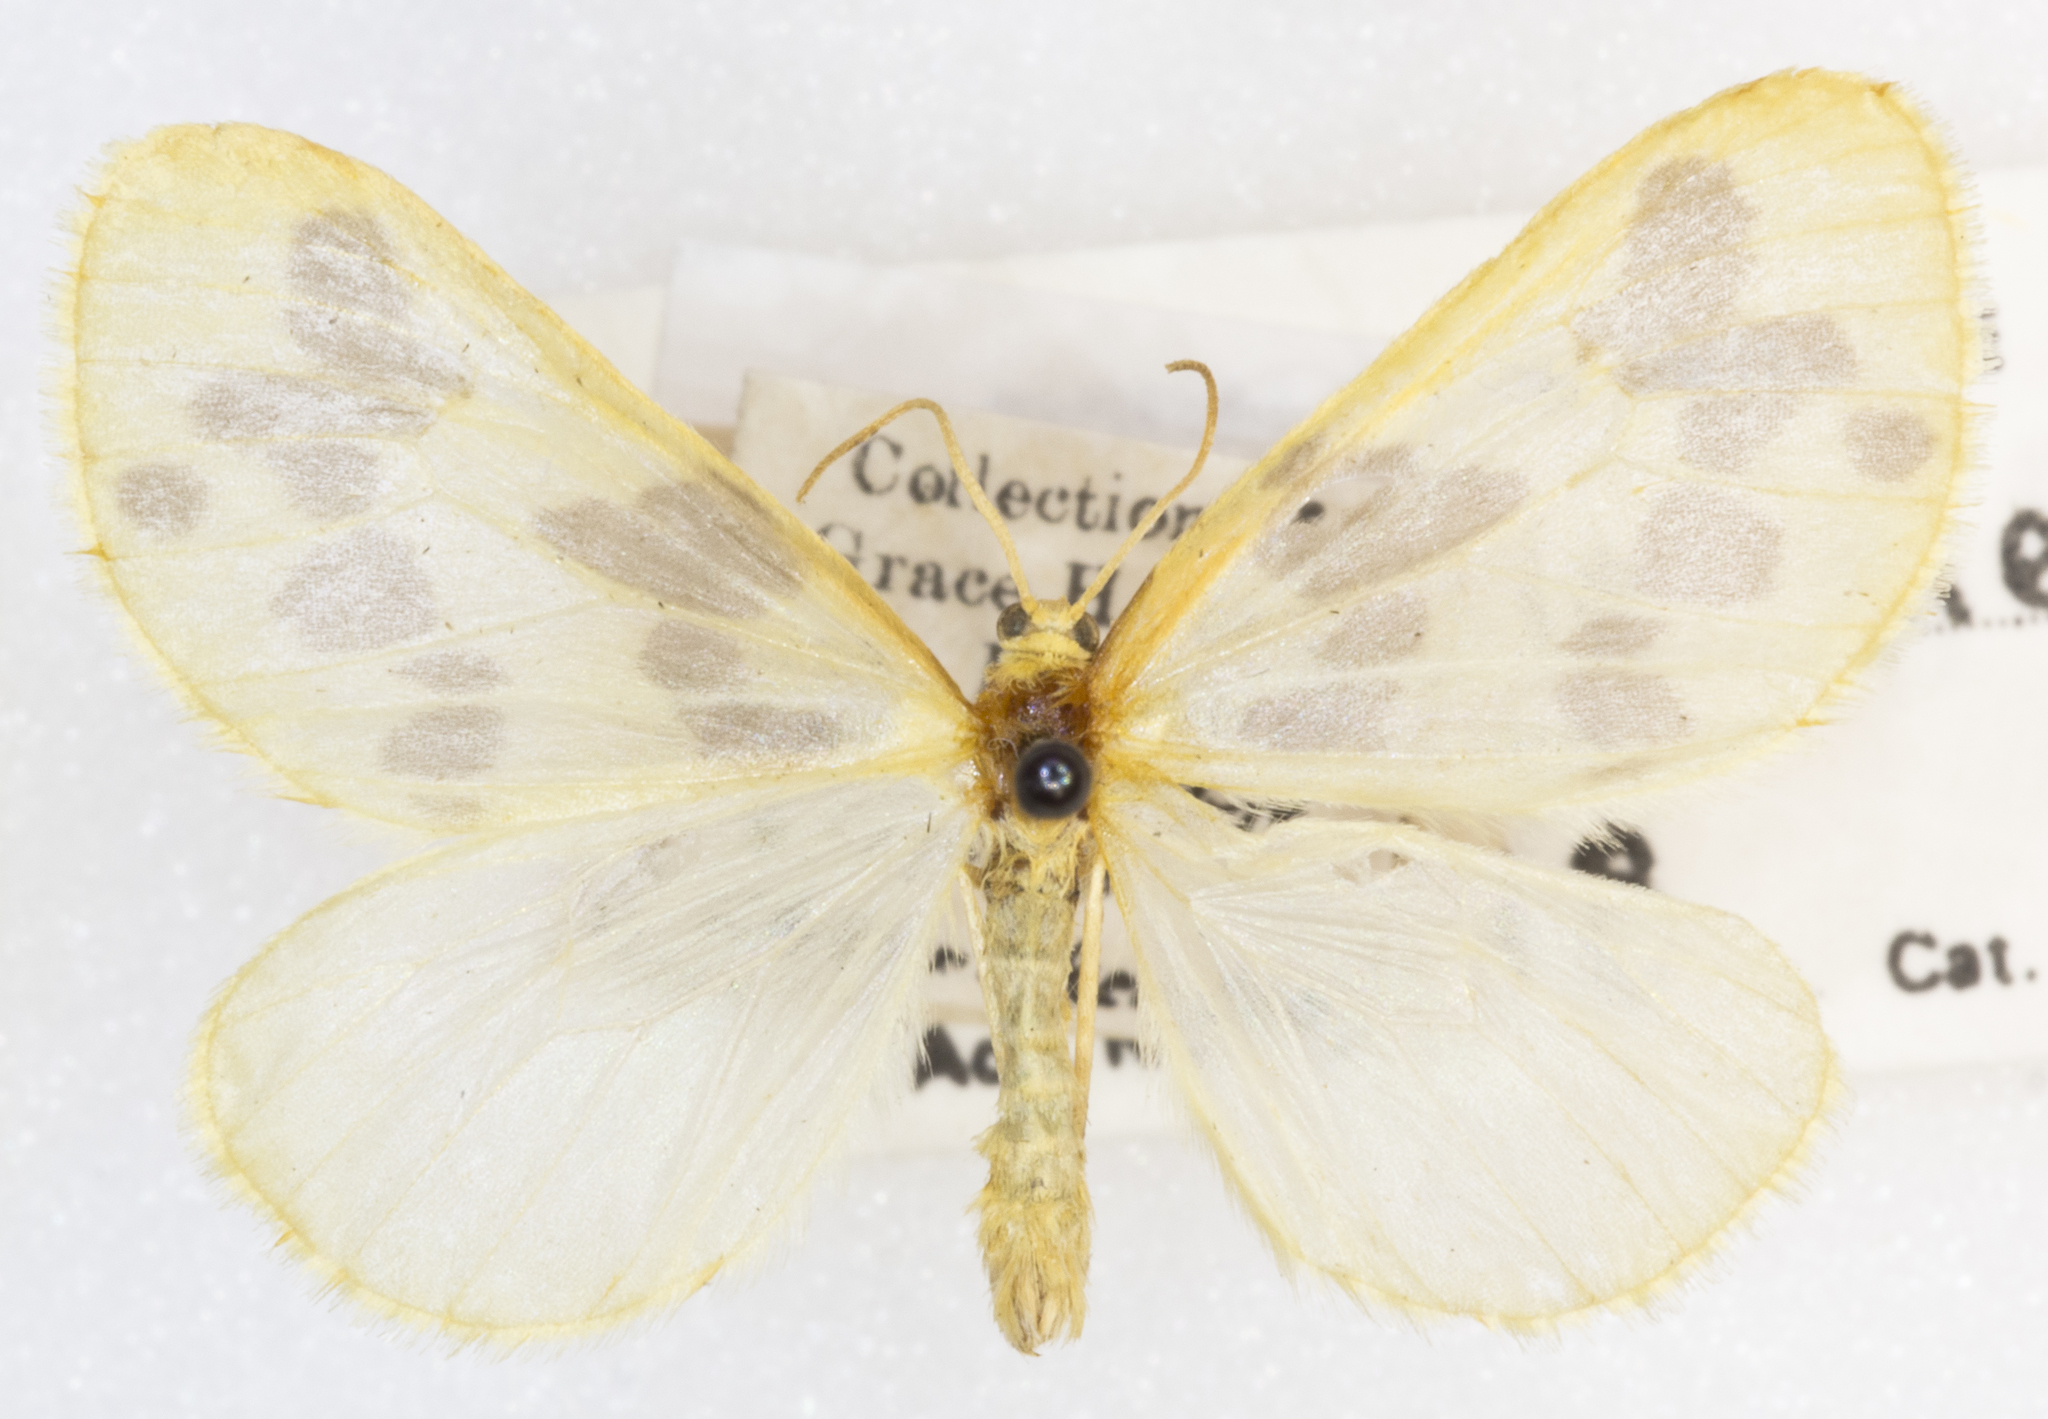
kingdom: Animalia
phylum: Arthropoda
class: Insecta
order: Lepidoptera
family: Geometridae
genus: Eubaphe
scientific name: Eubaphe mendica
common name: Beggar
